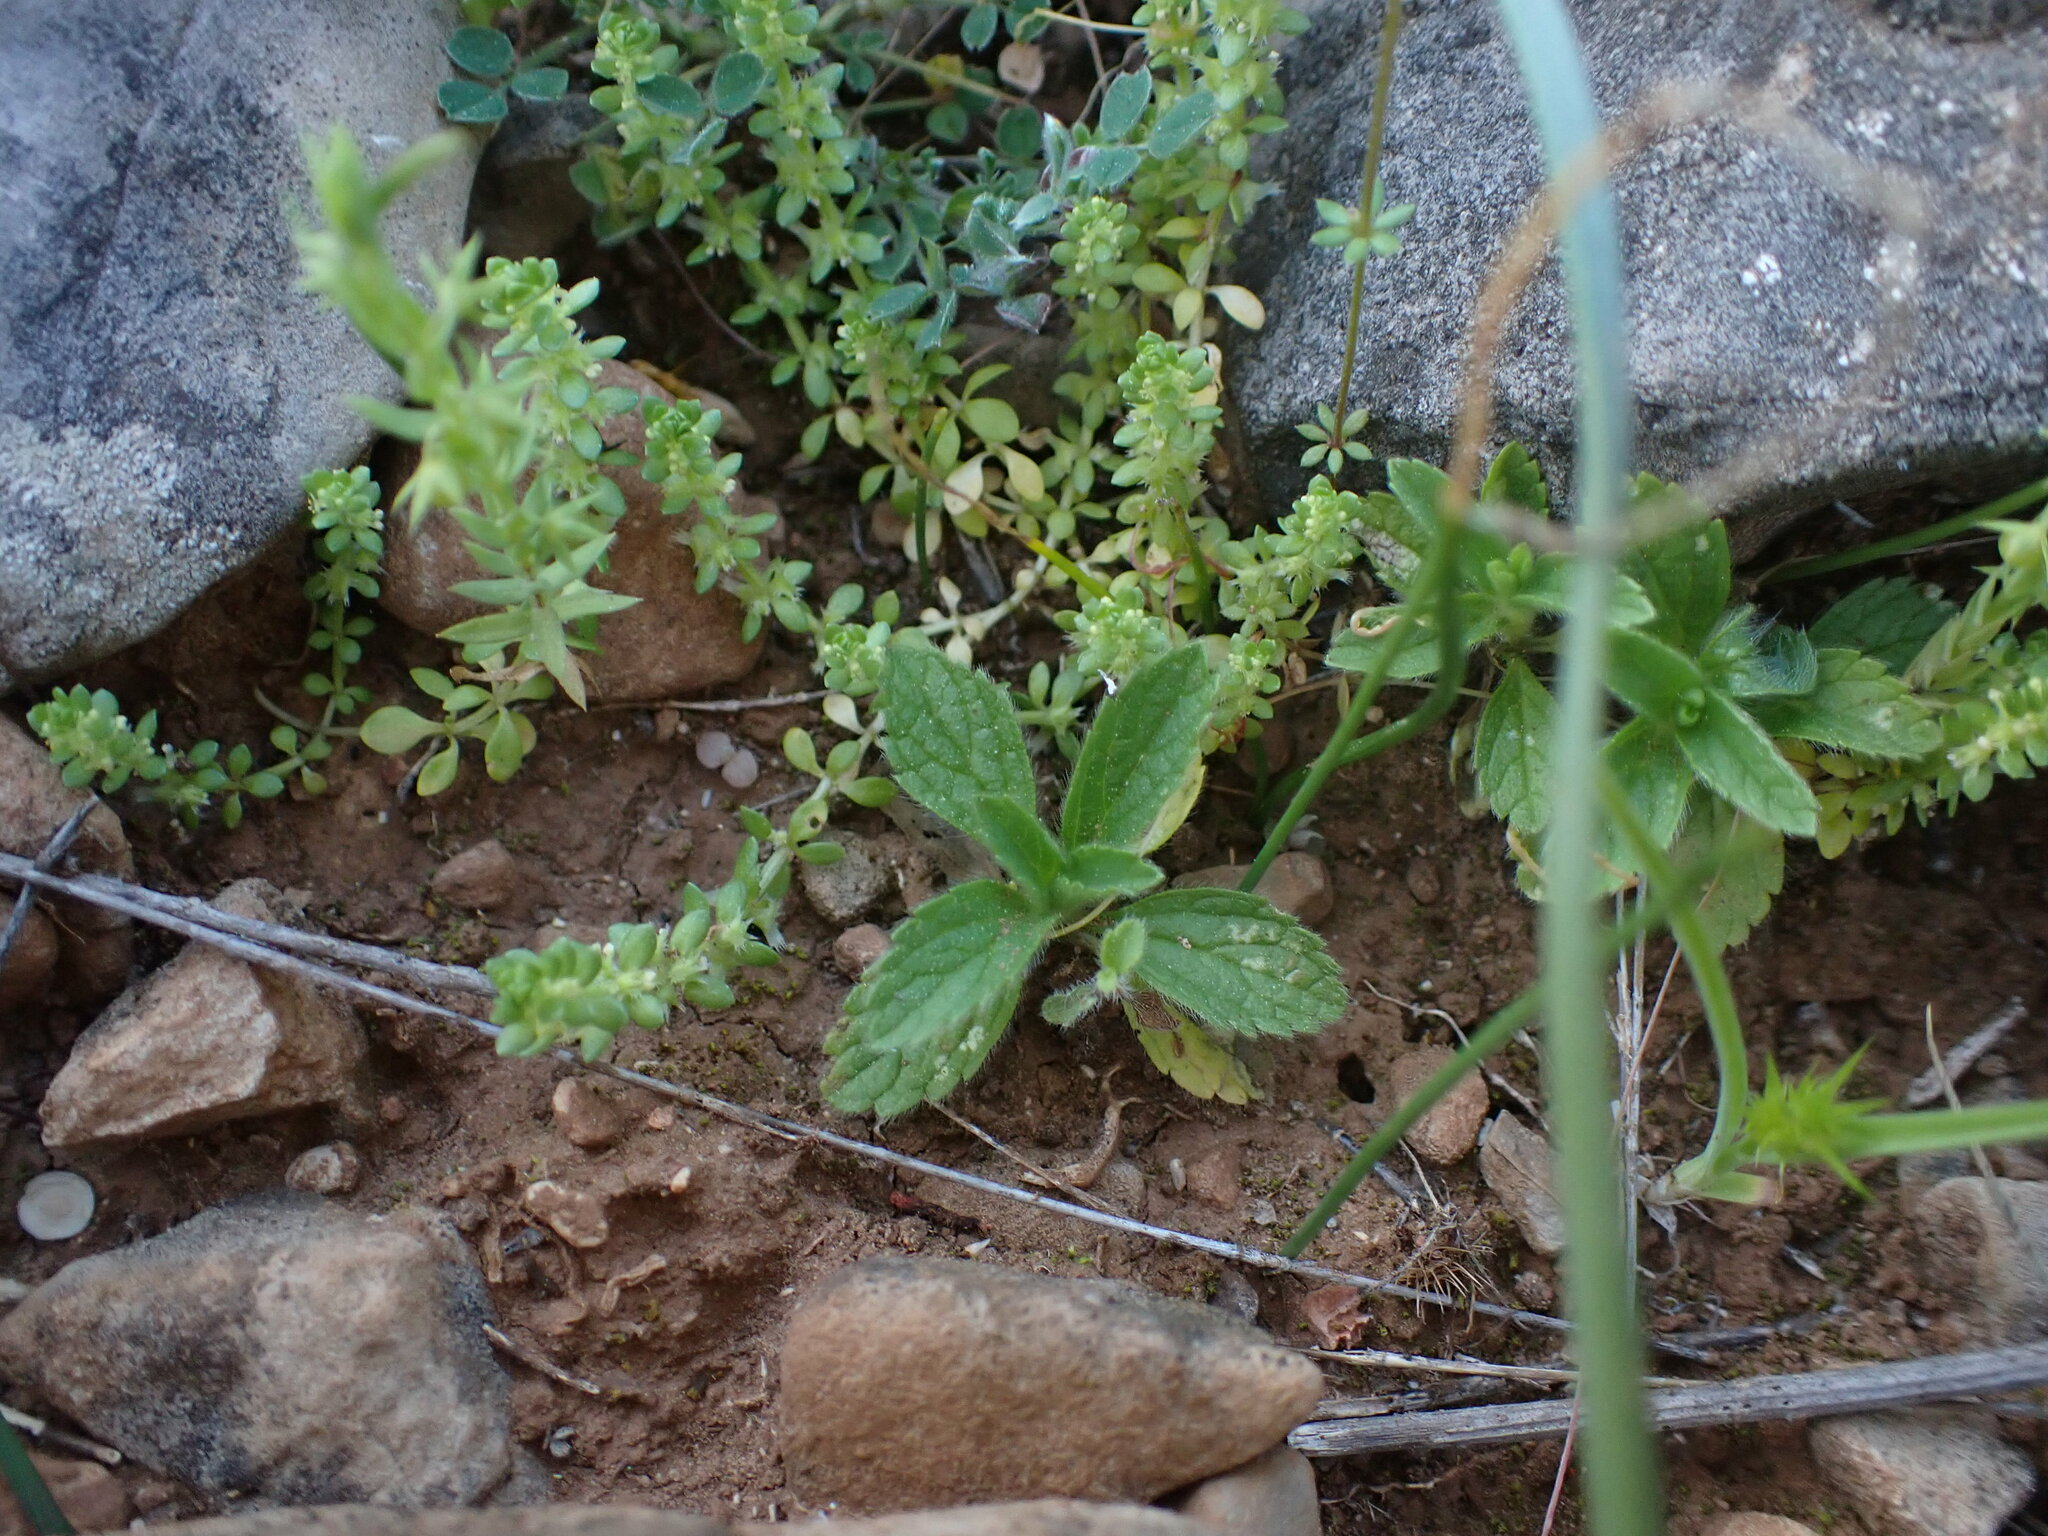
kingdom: Plantae
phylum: Tracheophyta
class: Magnoliopsida
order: Lamiales
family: Lamiaceae
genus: Sideritis
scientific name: Sideritis romana
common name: Simplebeak ironwort
